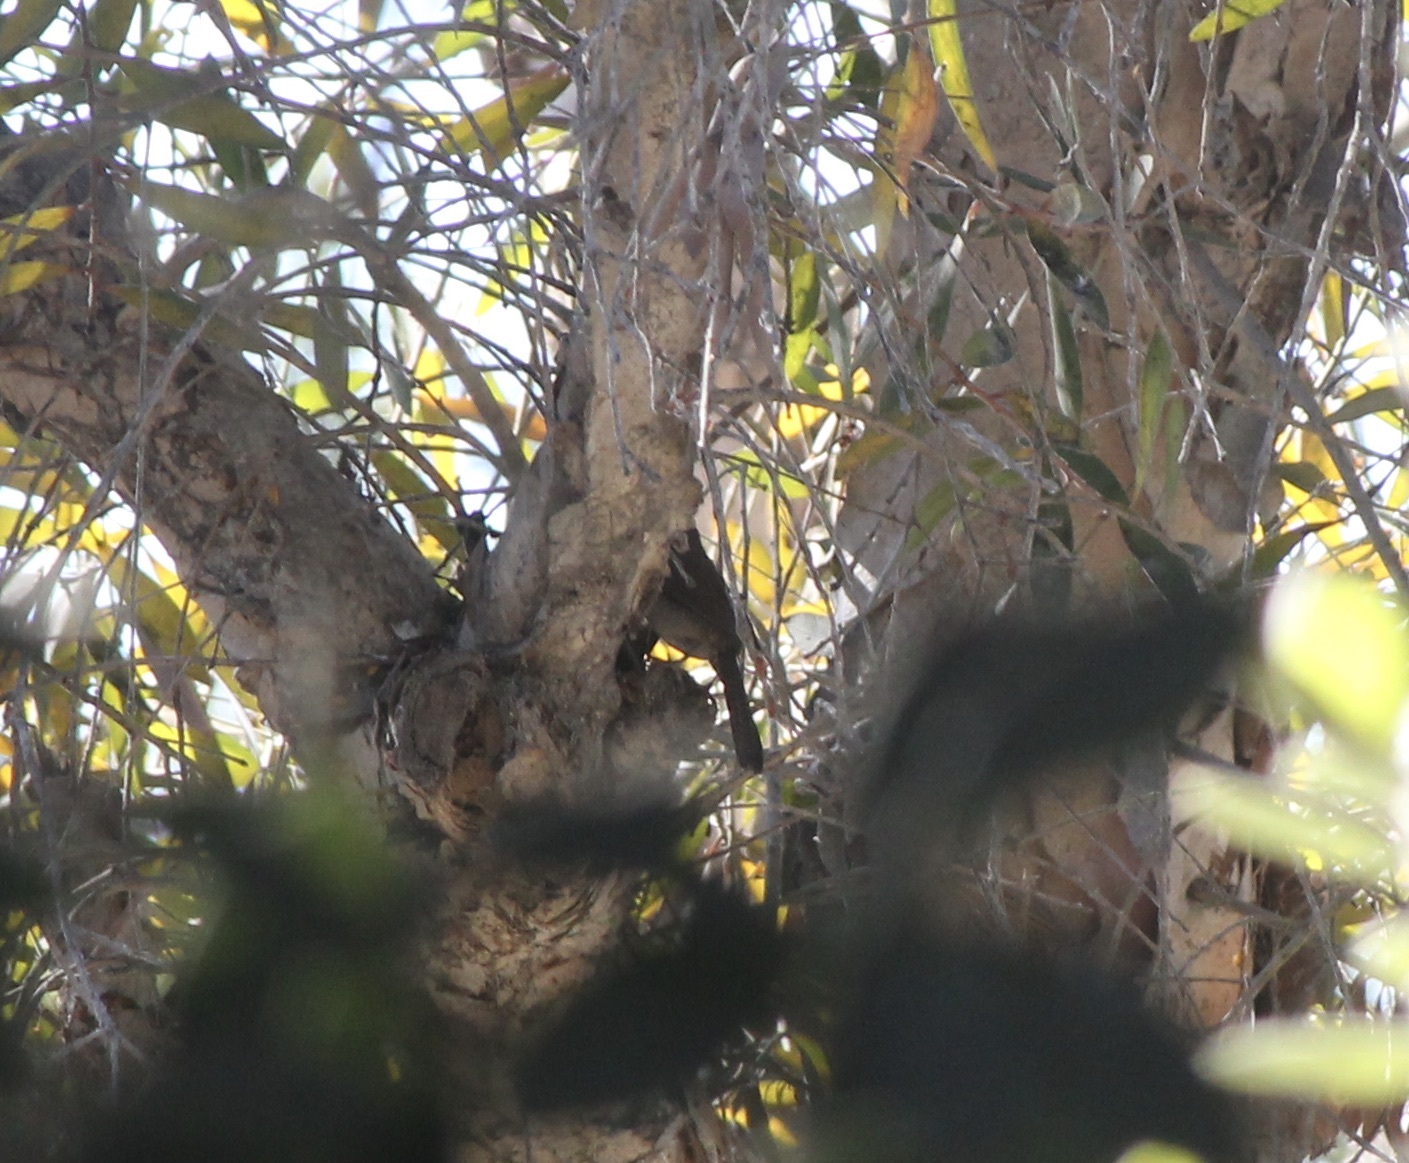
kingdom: Animalia
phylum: Chordata
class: Aves
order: Passeriformes
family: Troglodytidae
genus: Thryomanes
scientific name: Thryomanes bewickii
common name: Bewick's wren
